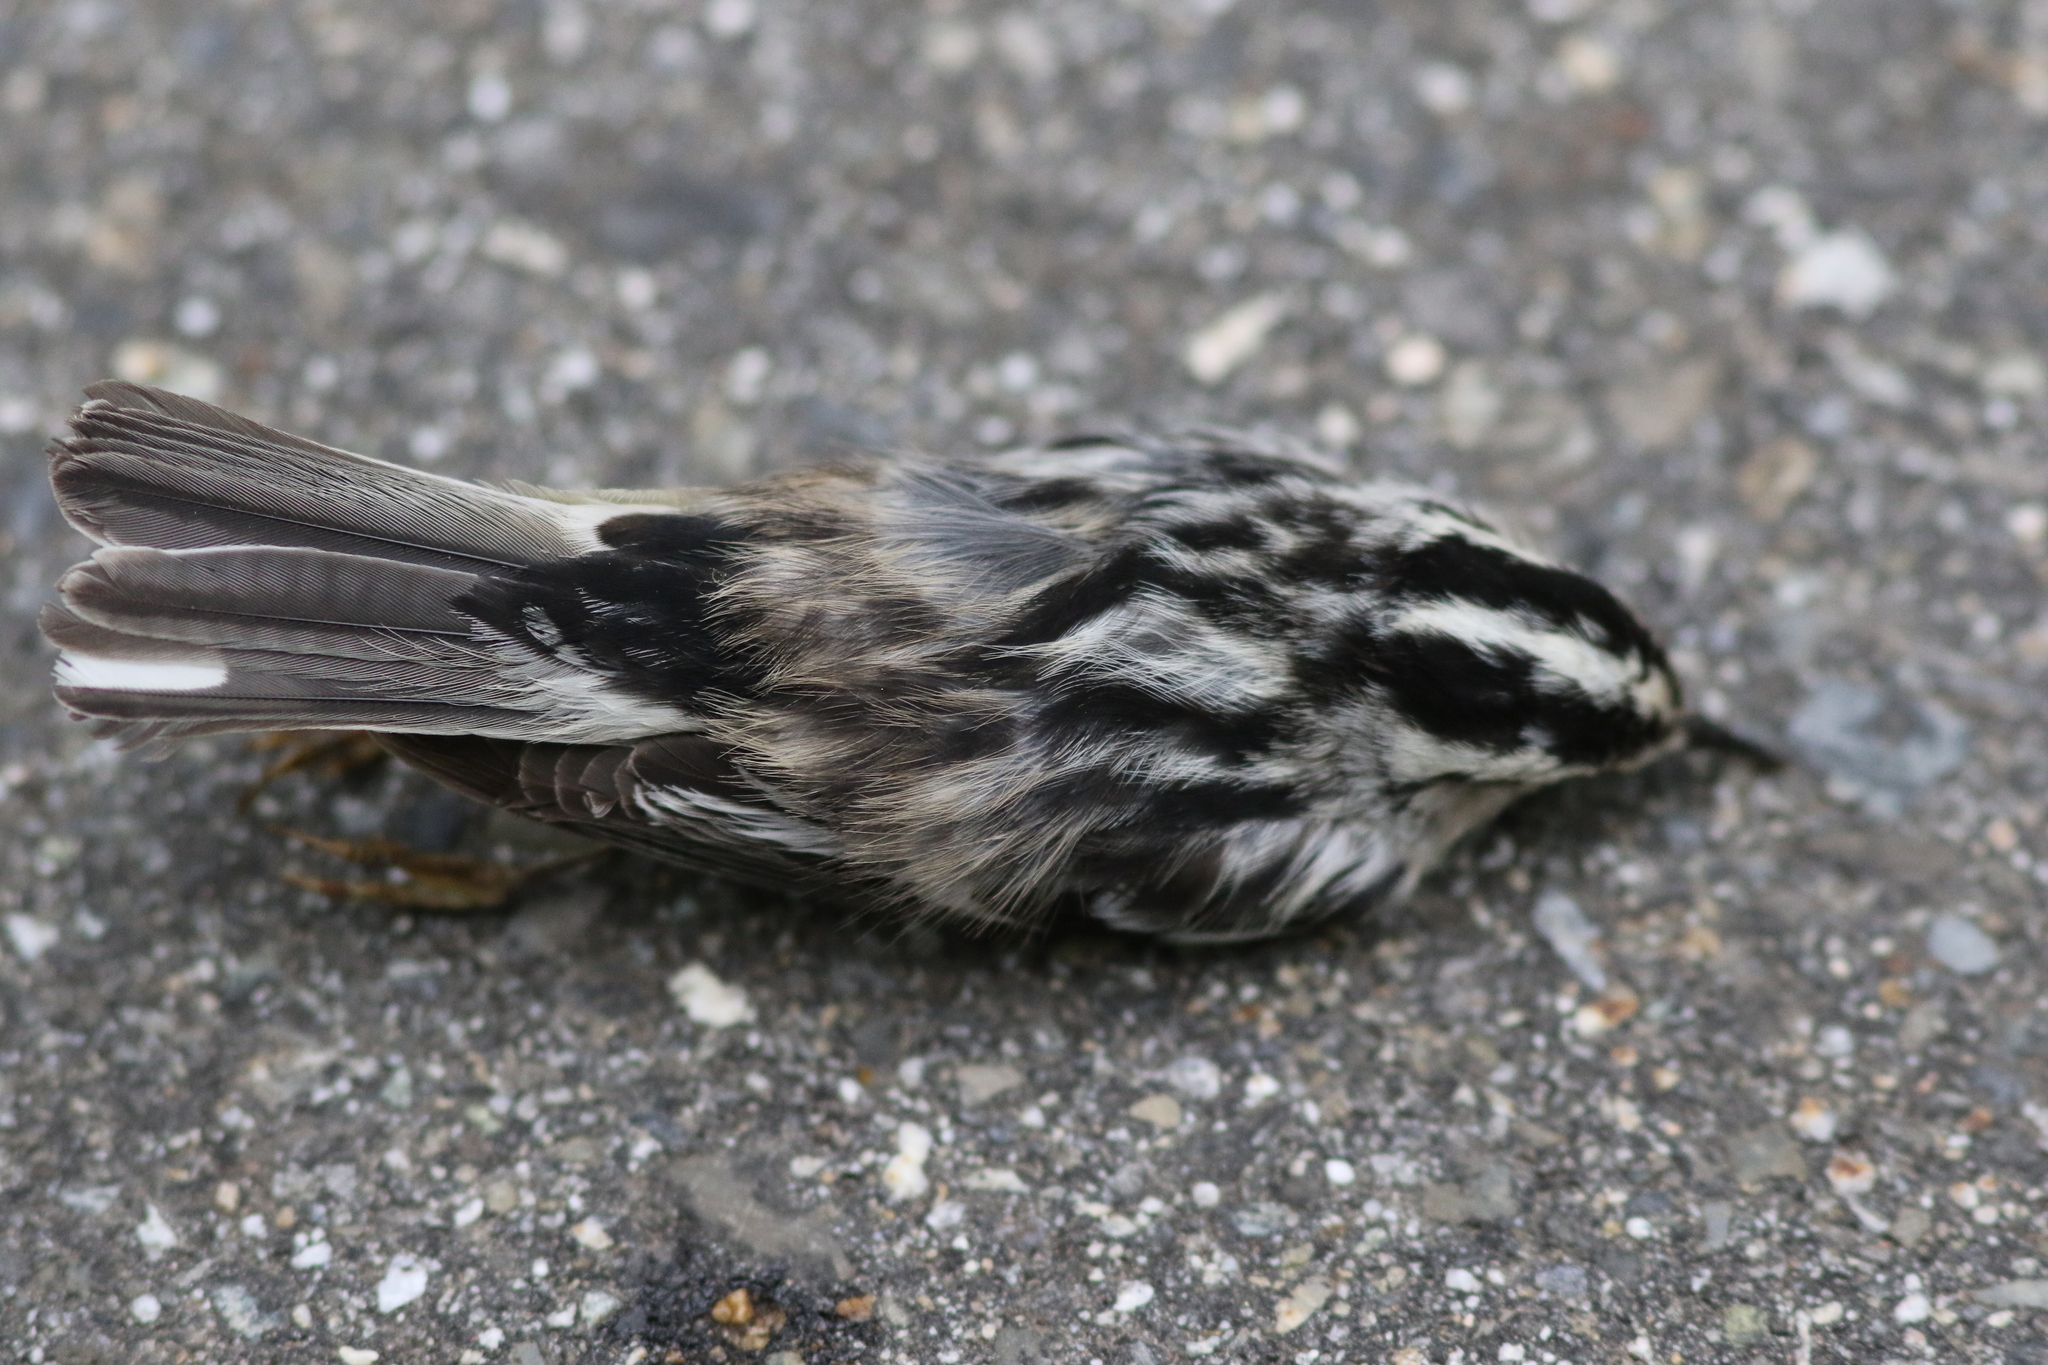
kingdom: Animalia
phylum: Chordata
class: Aves
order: Passeriformes
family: Parulidae
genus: Mniotilta
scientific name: Mniotilta varia
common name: Black-and-white warbler
